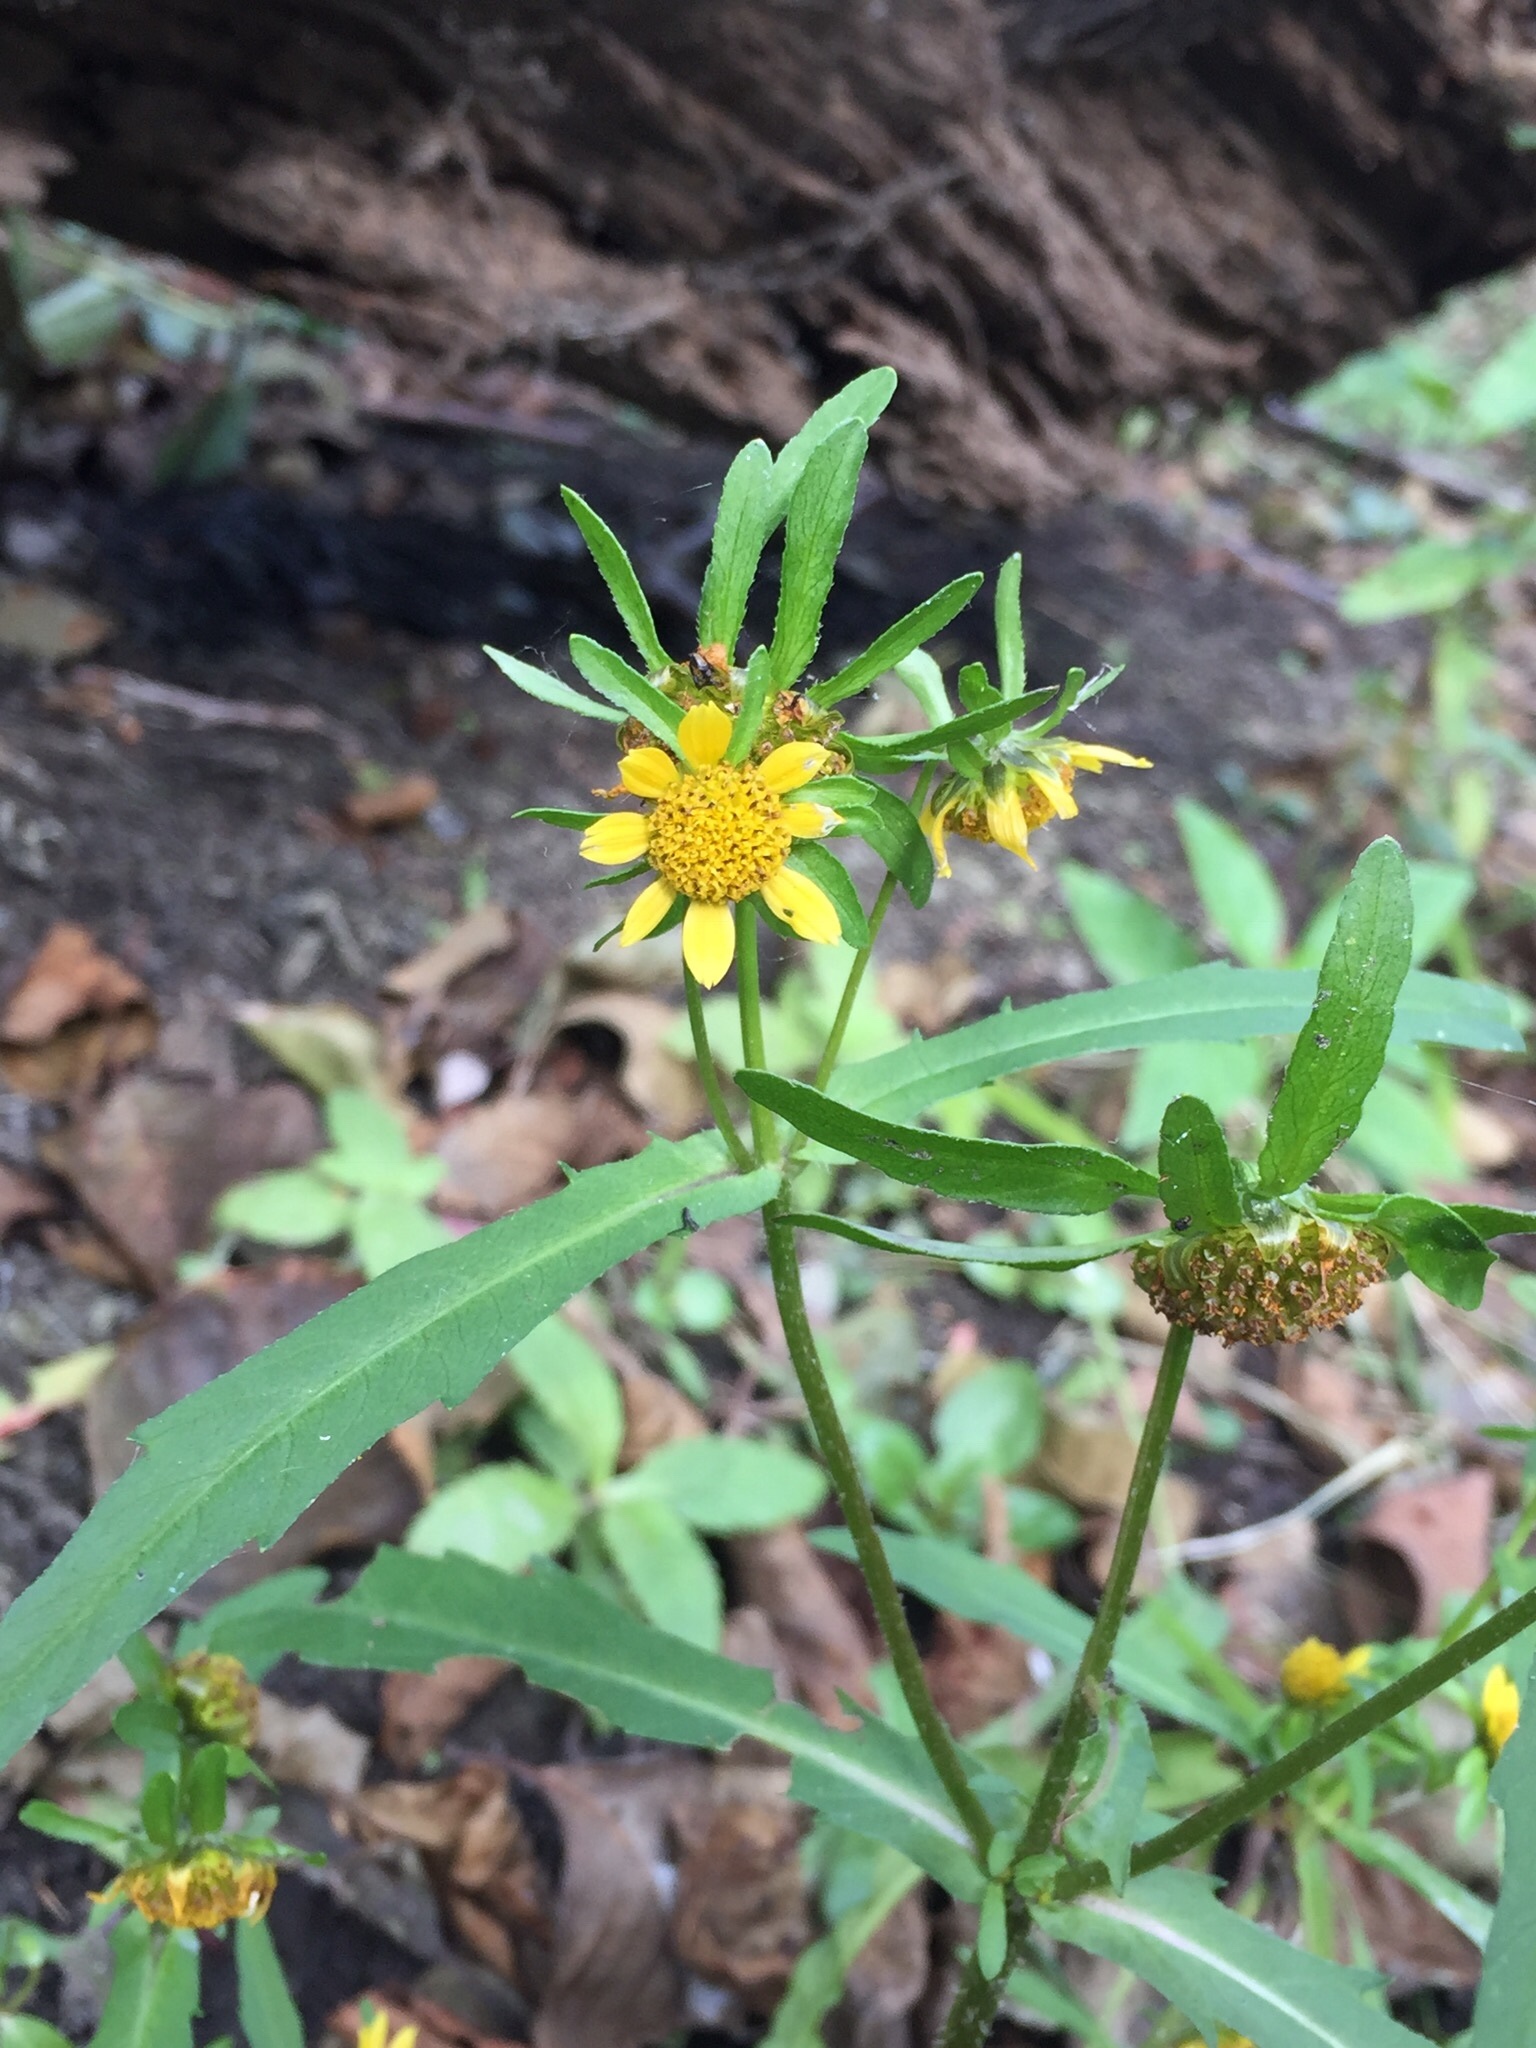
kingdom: Plantae
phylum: Tracheophyta
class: Magnoliopsida
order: Asterales
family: Asteraceae
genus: Bidens
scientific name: Bidens cernua
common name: Nodding bur-marigold
